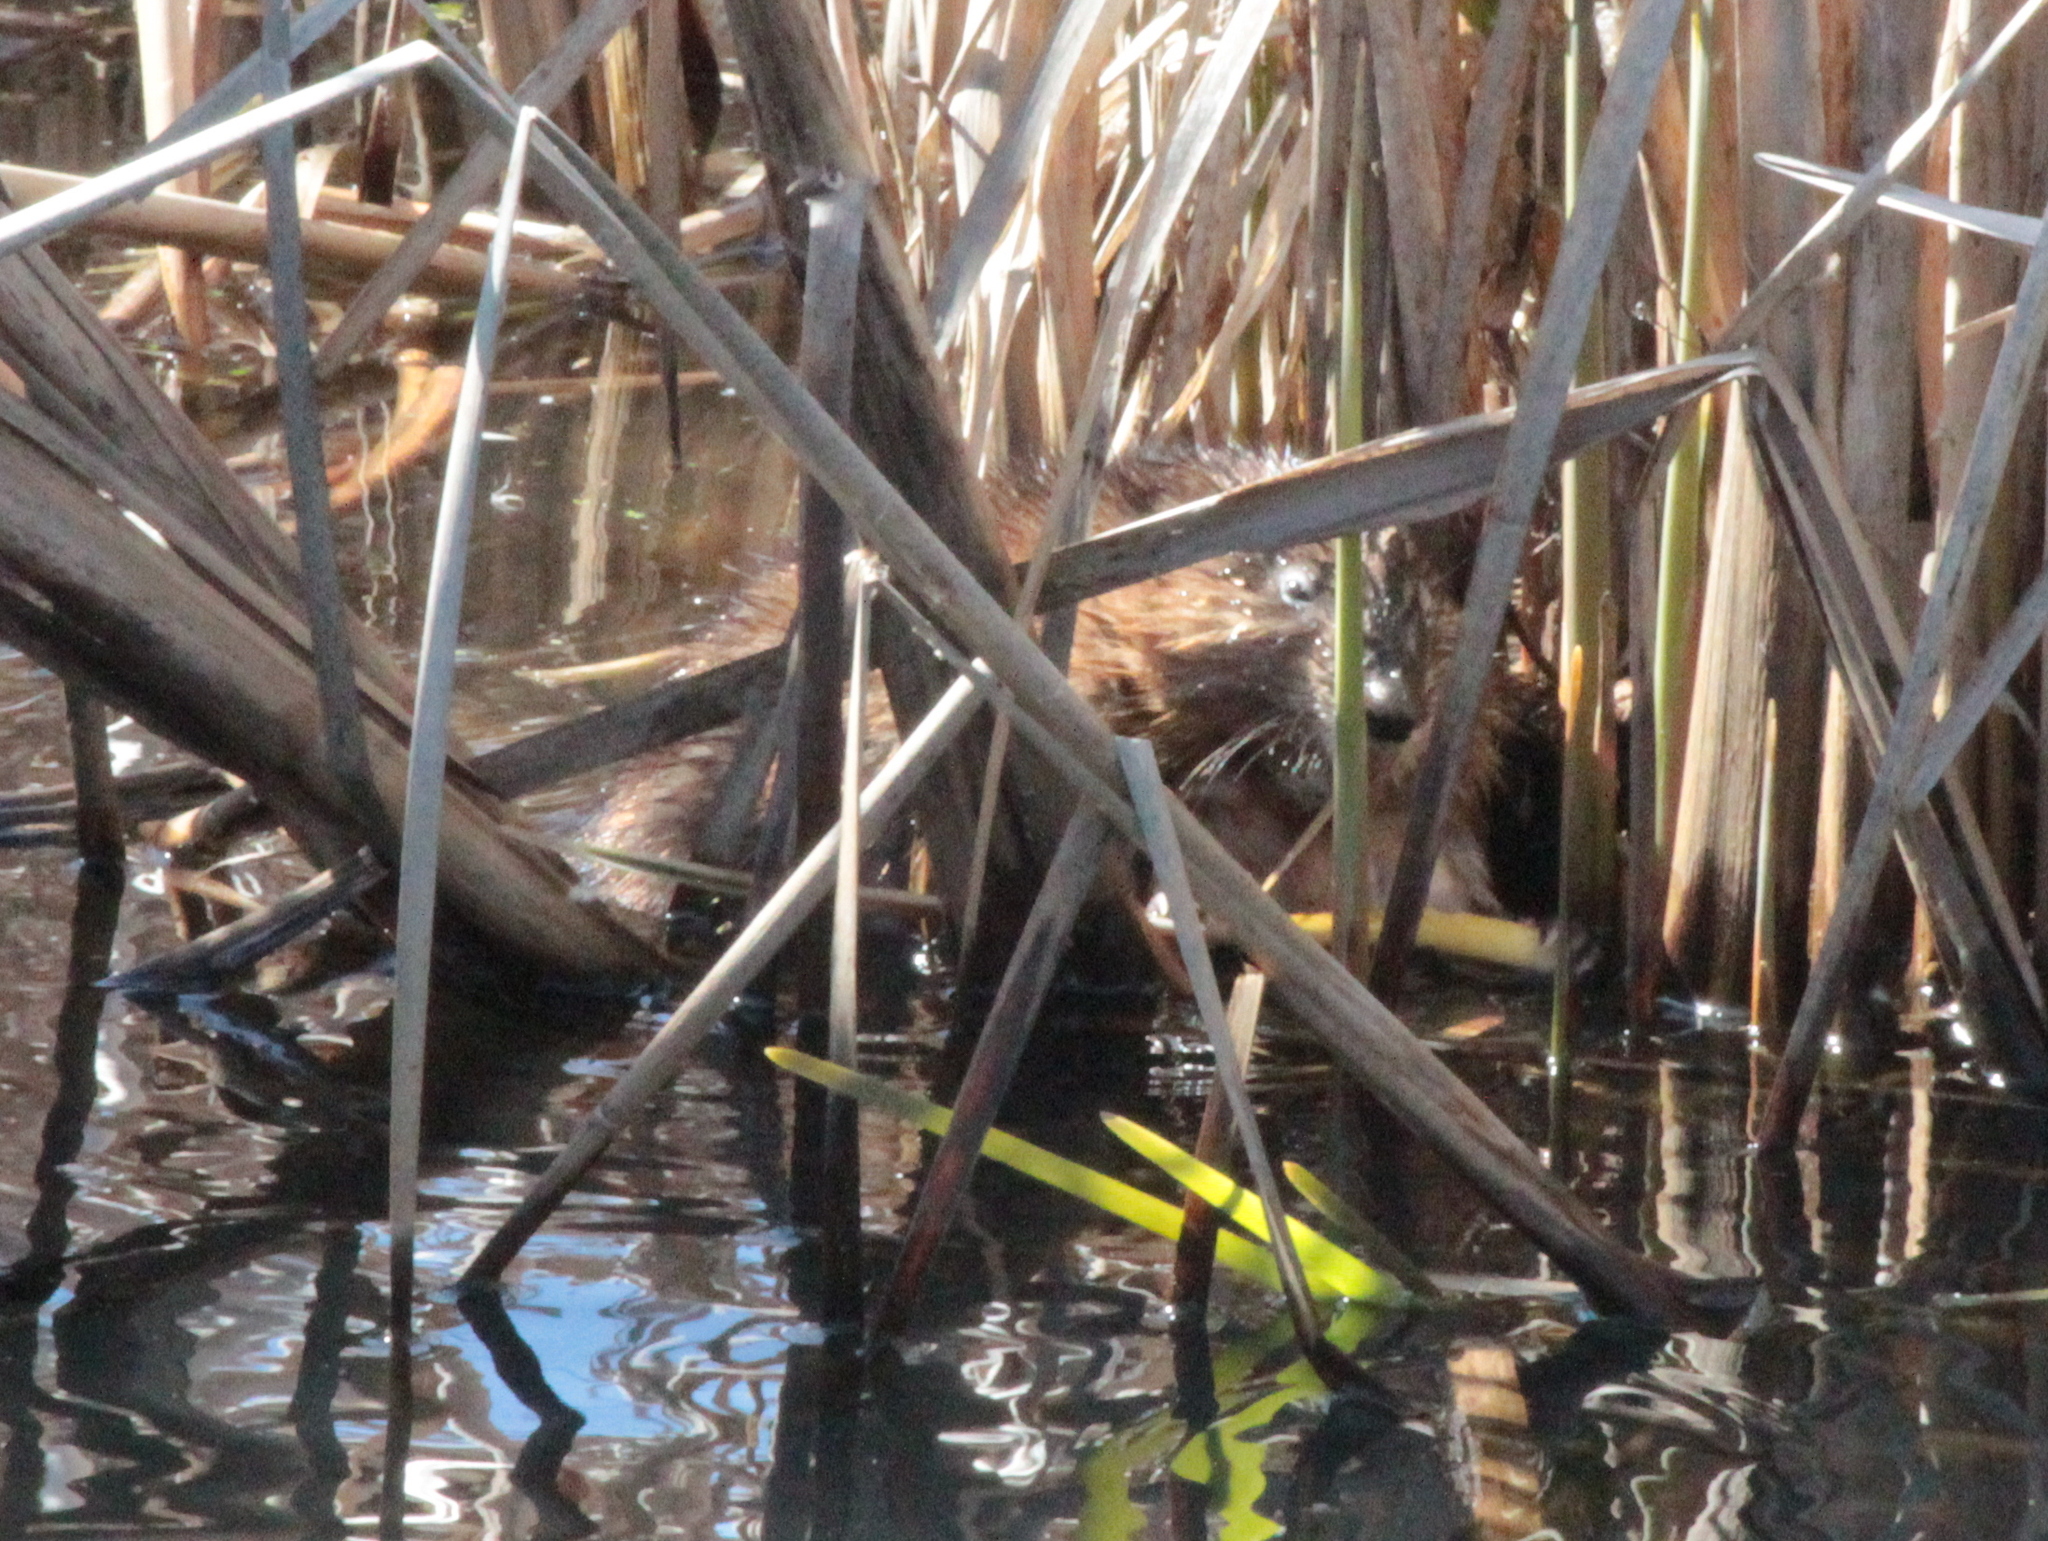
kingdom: Animalia
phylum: Chordata
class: Mammalia
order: Rodentia
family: Cricetidae
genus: Ondatra
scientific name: Ondatra zibethicus
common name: Muskrat
